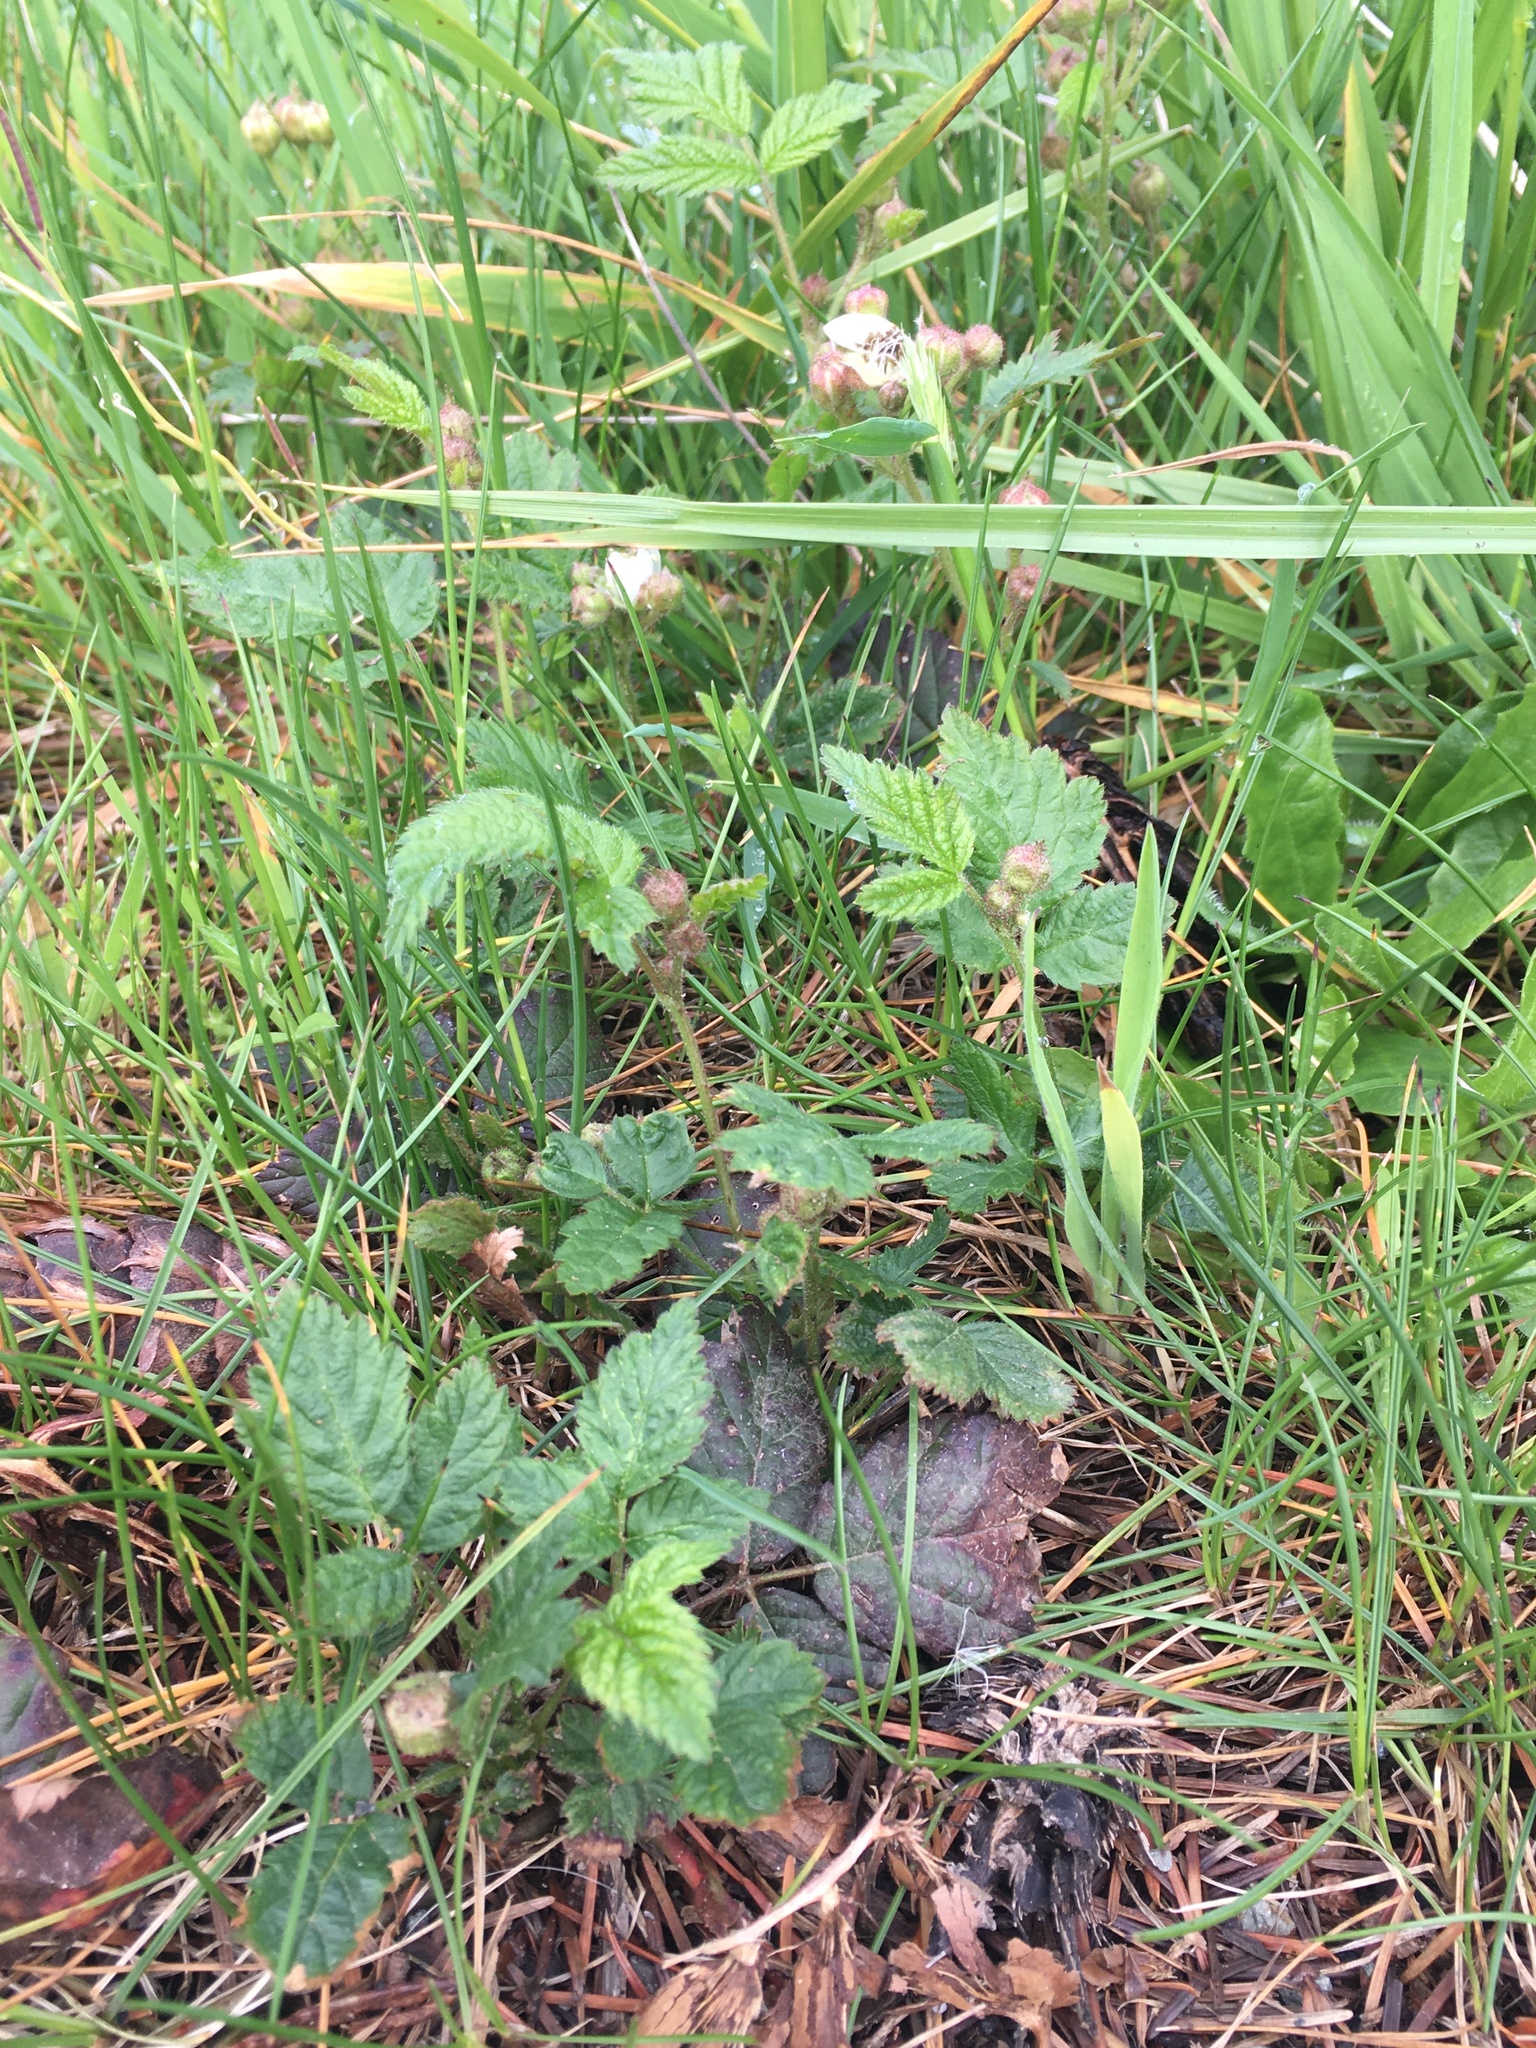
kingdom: Plantae
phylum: Tracheophyta
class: Magnoliopsida
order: Rosales
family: Rosaceae
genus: Rubus
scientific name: Rubus ursinus
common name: Pacific blackberry
